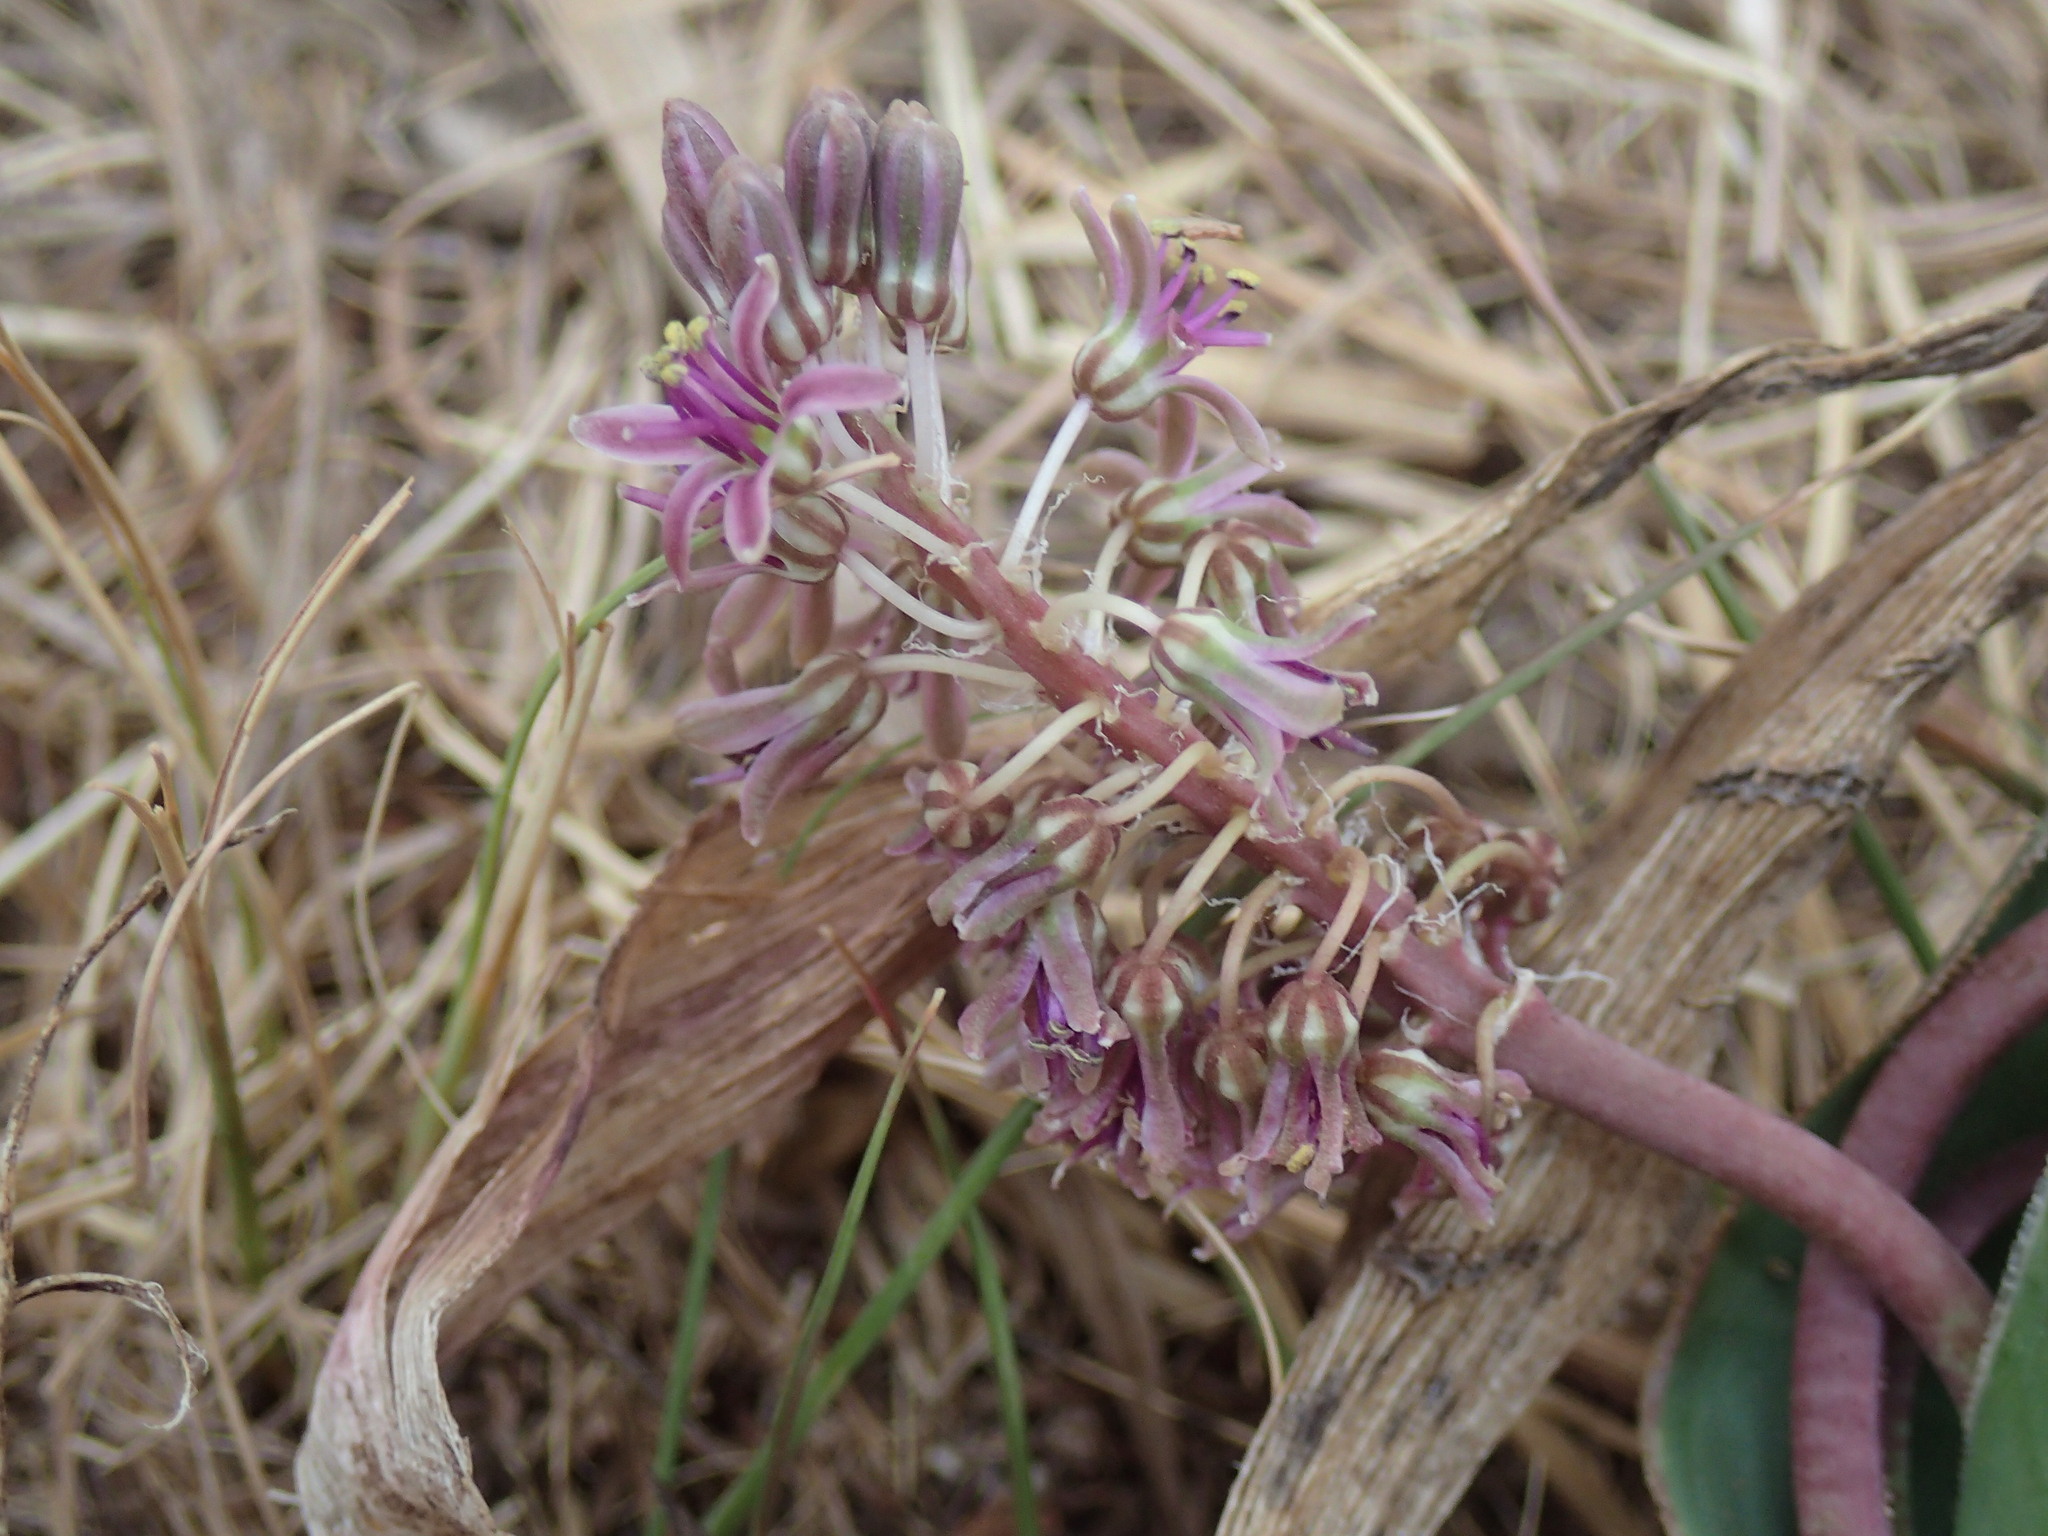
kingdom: Plantae
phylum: Tracheophyta
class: Liliopsida
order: Asparagales
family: Asparagaceae
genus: Ledebouria
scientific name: Ledebouria marginata
